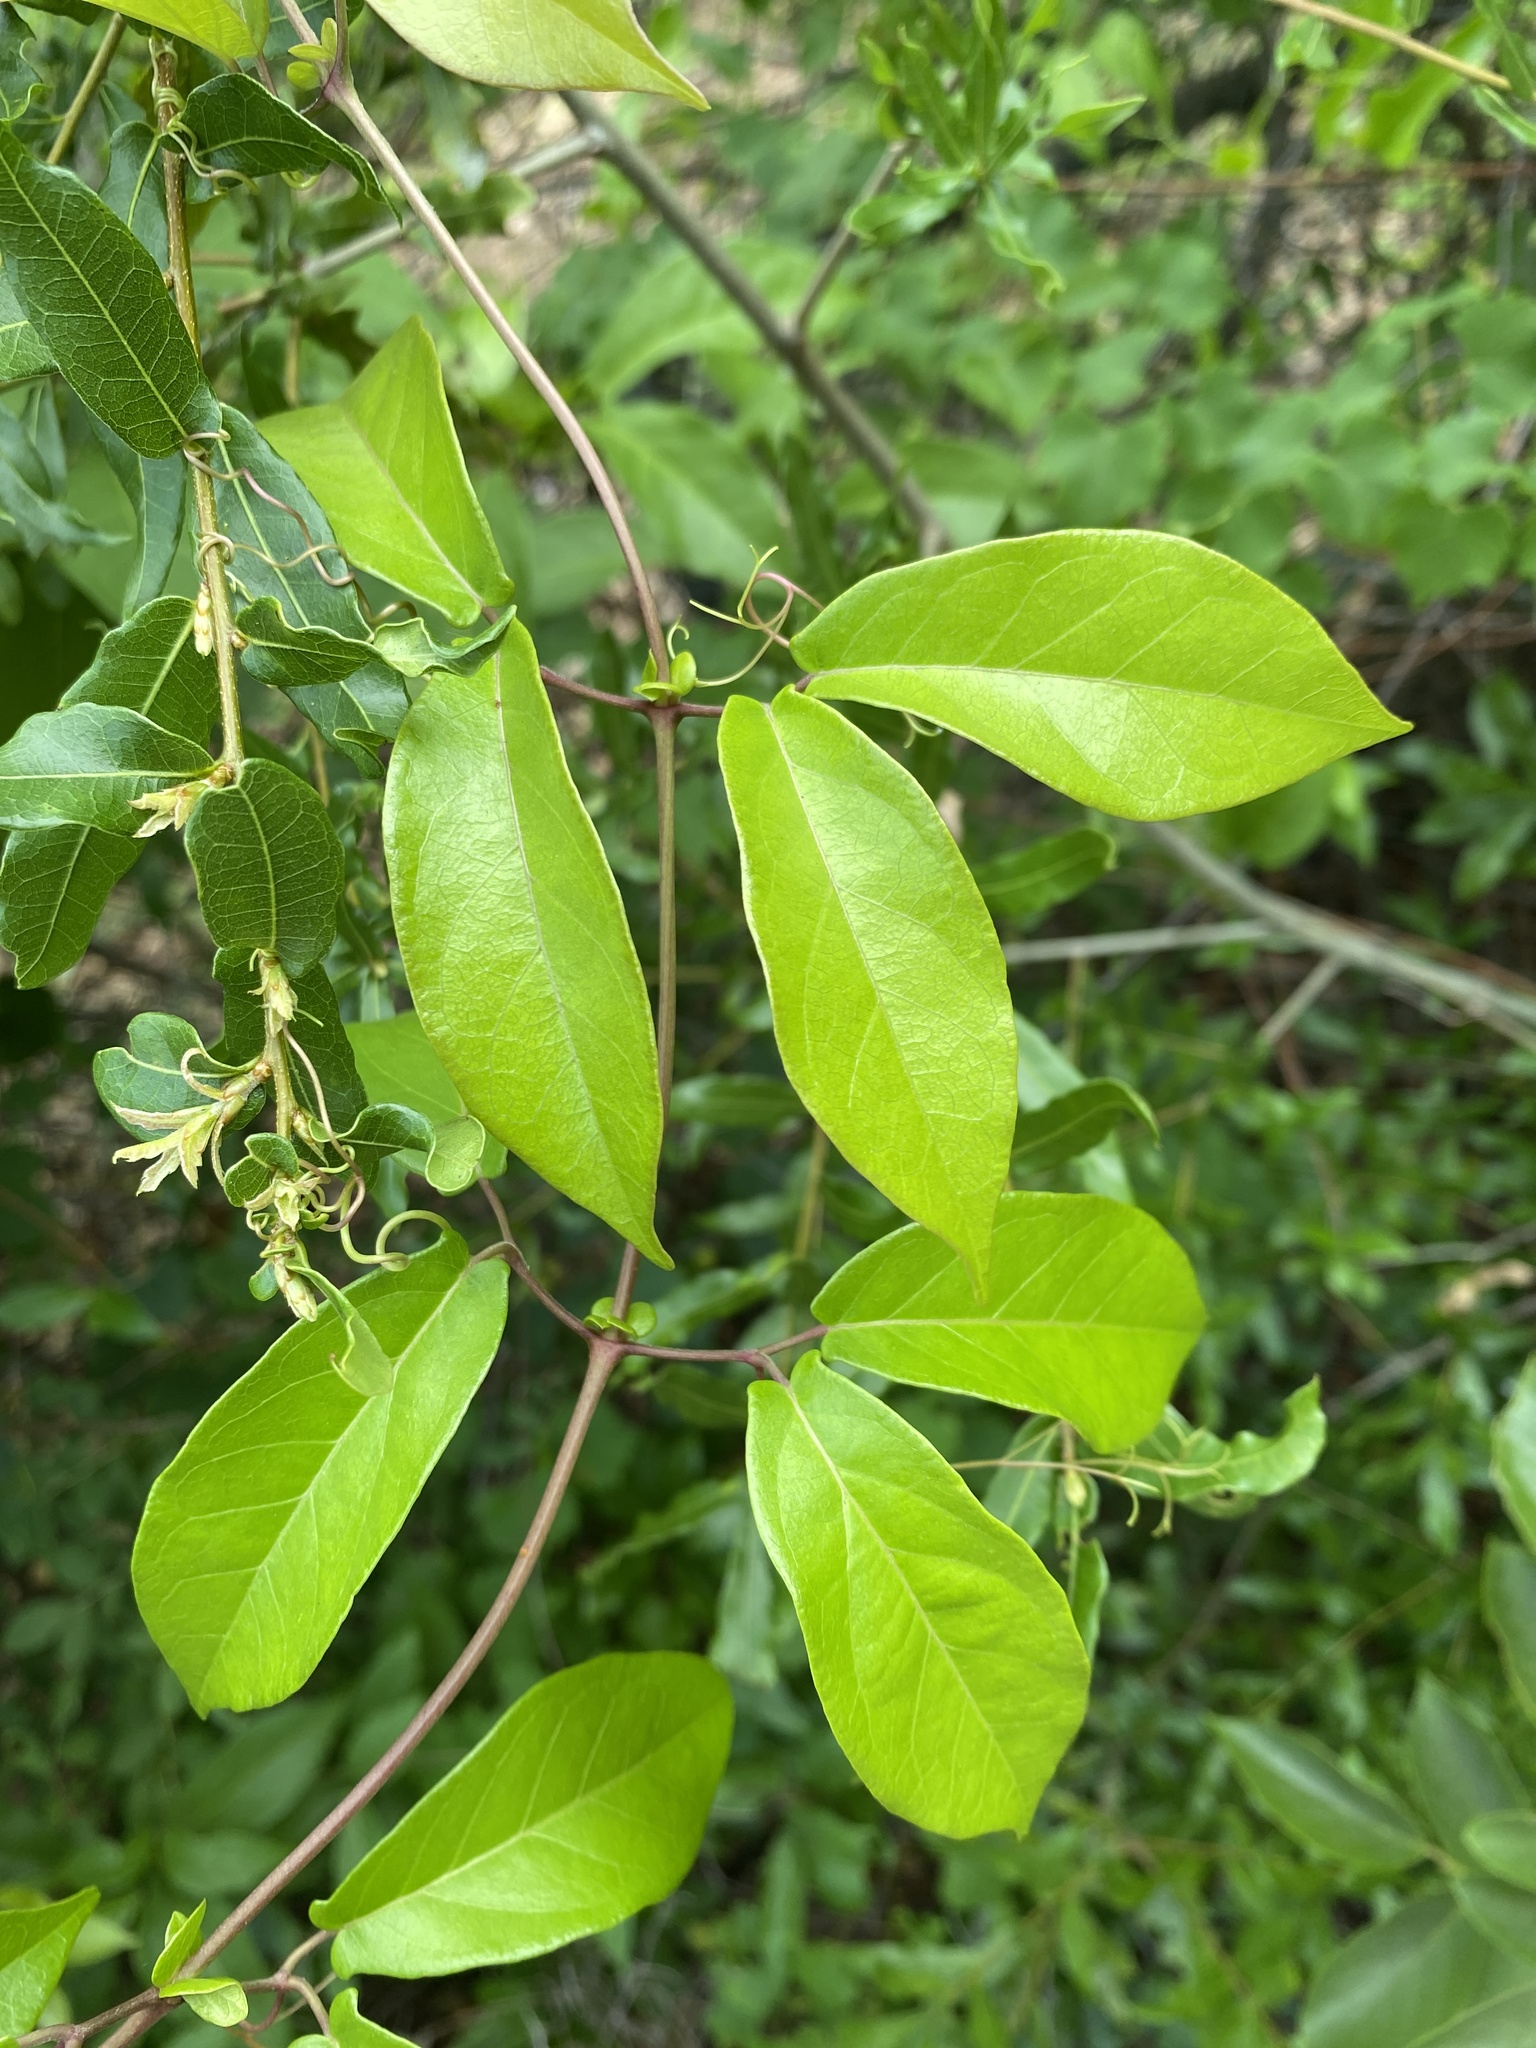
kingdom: Plantae
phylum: Tracheophyta
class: Magnoliopsida
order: Lamiales
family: Bignoniaceae
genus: Bignonia
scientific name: Bignonia capreolata
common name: Crossvine
